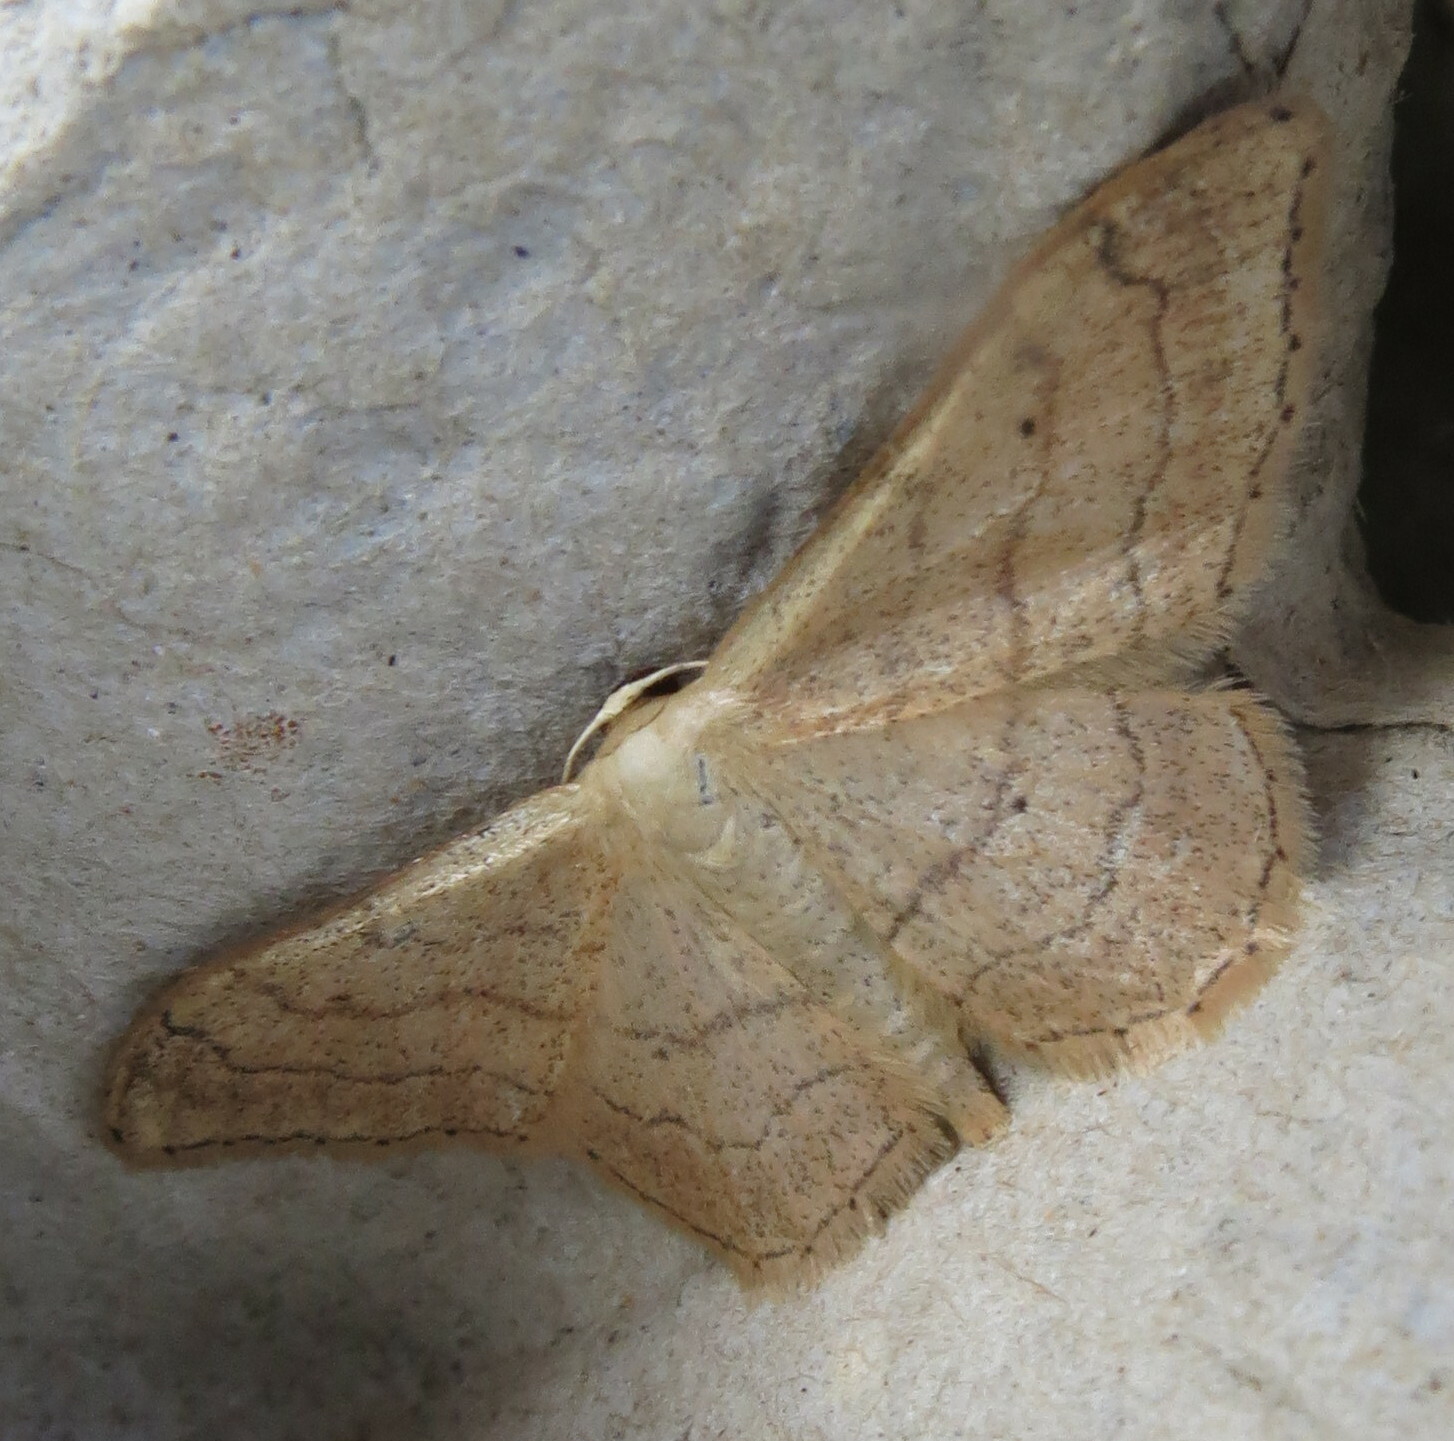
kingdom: Animalia
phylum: Arthropoda
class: Insecta
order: Lepidoptera
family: Geometridae
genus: Idaea
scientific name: Idaea aversata
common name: Riband wave
